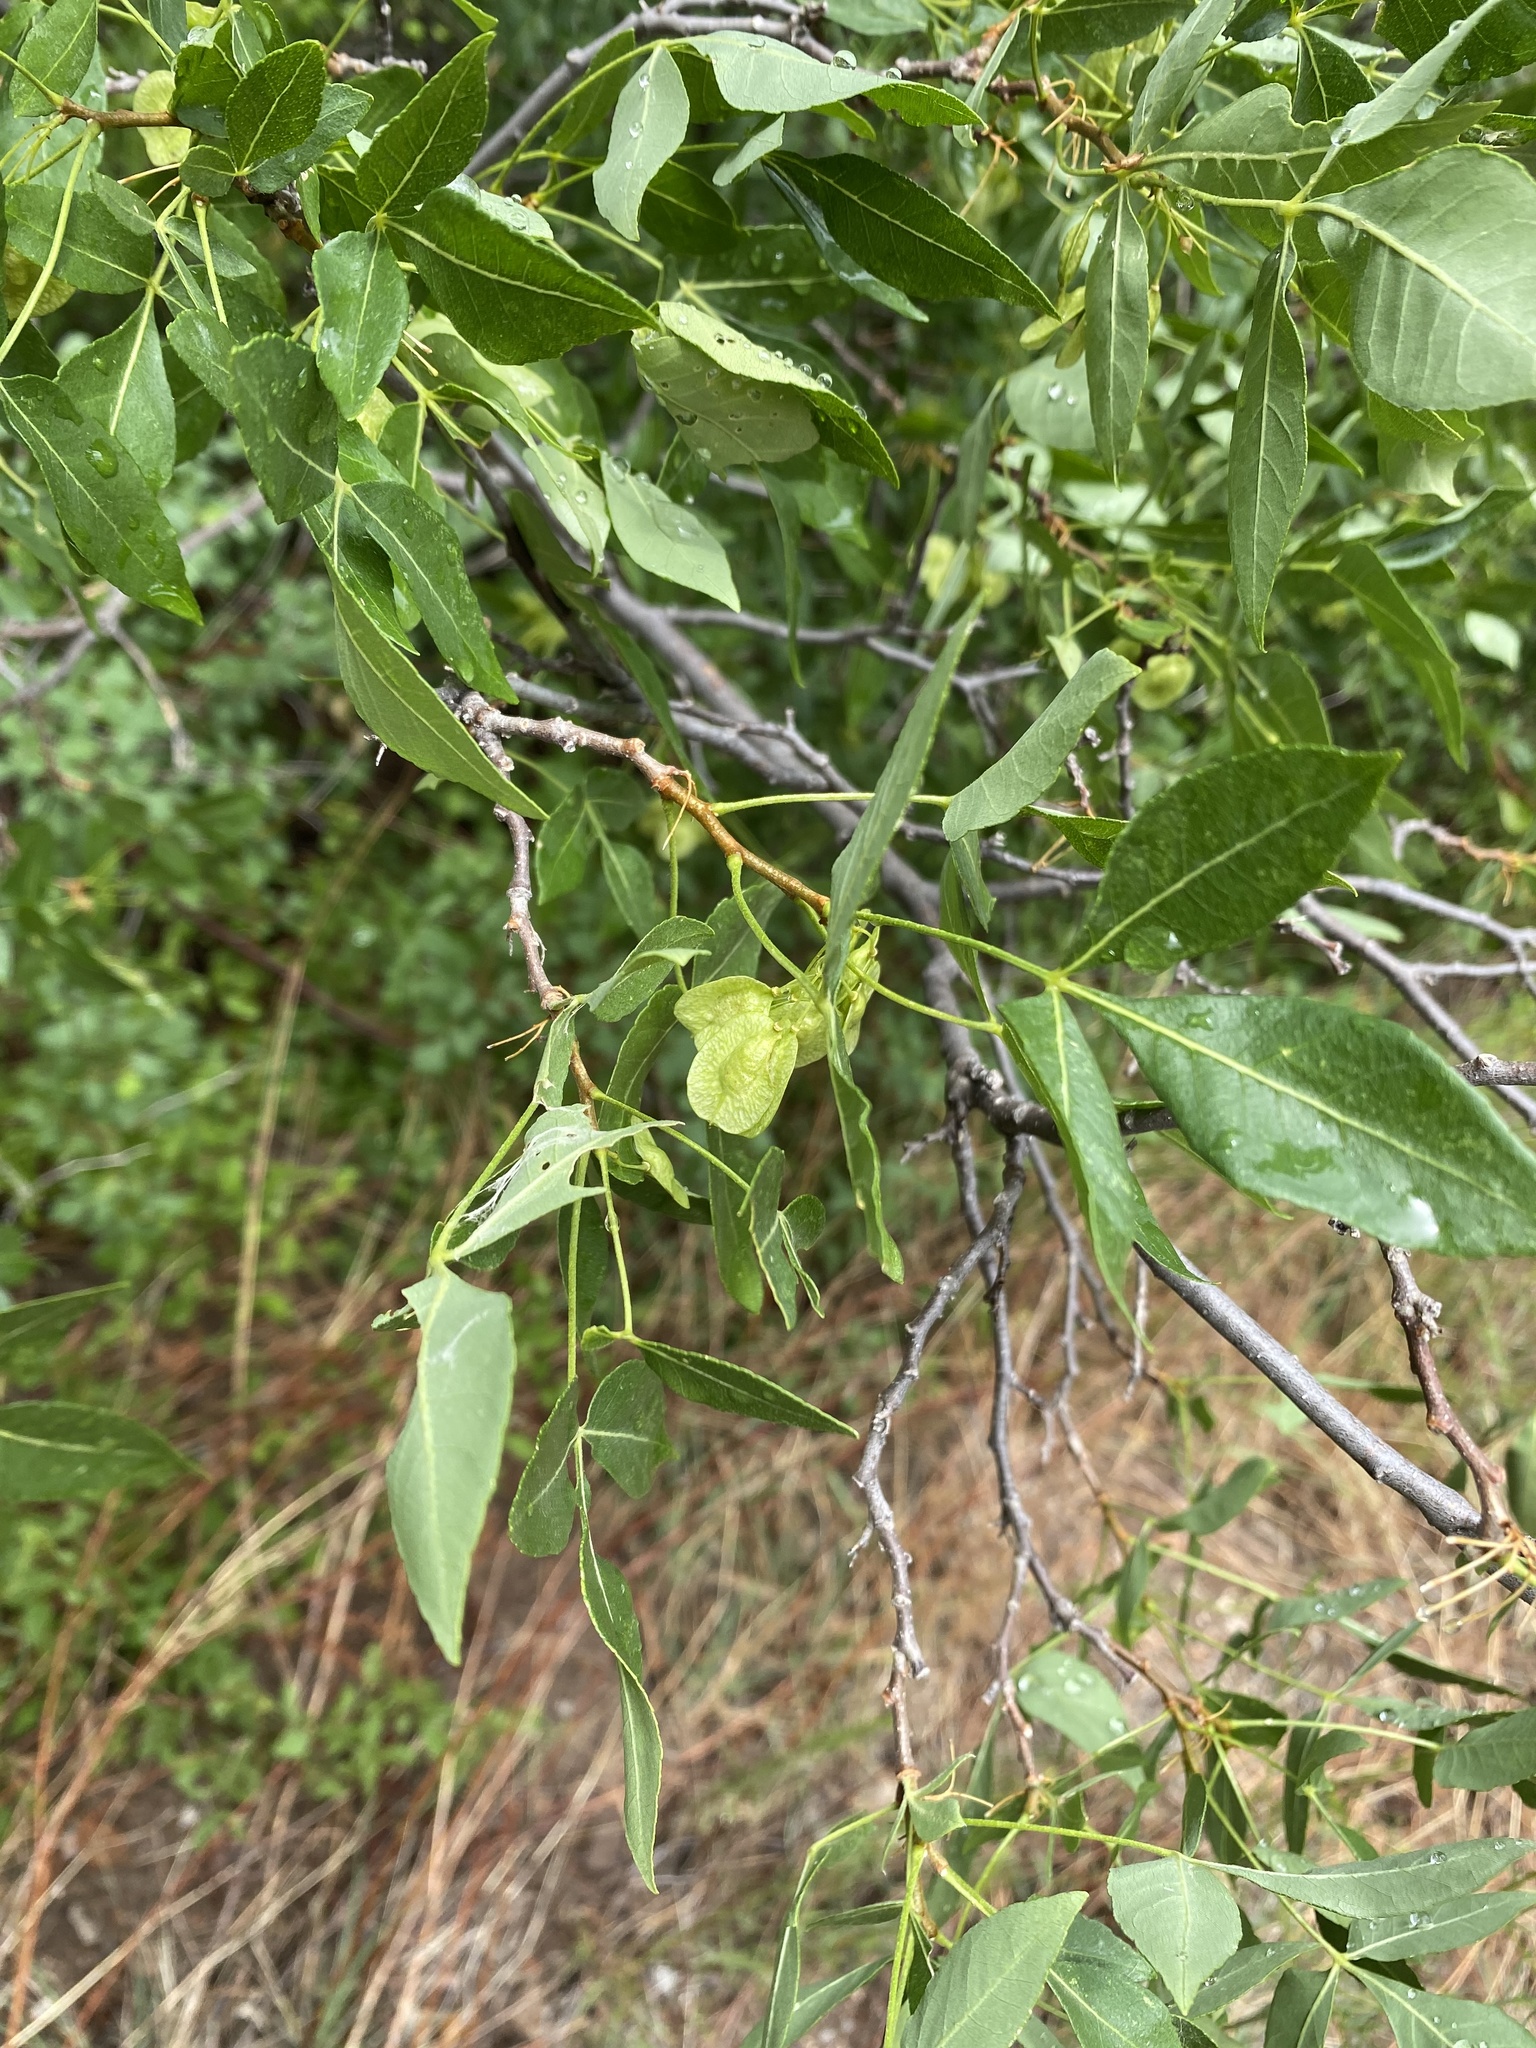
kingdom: Plantae
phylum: Tracheophyta
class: Magnoliopsida
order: Sapindales
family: Rutaceae
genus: Ptelea
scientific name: Ptelea trifoliata
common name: Common hop-tree
